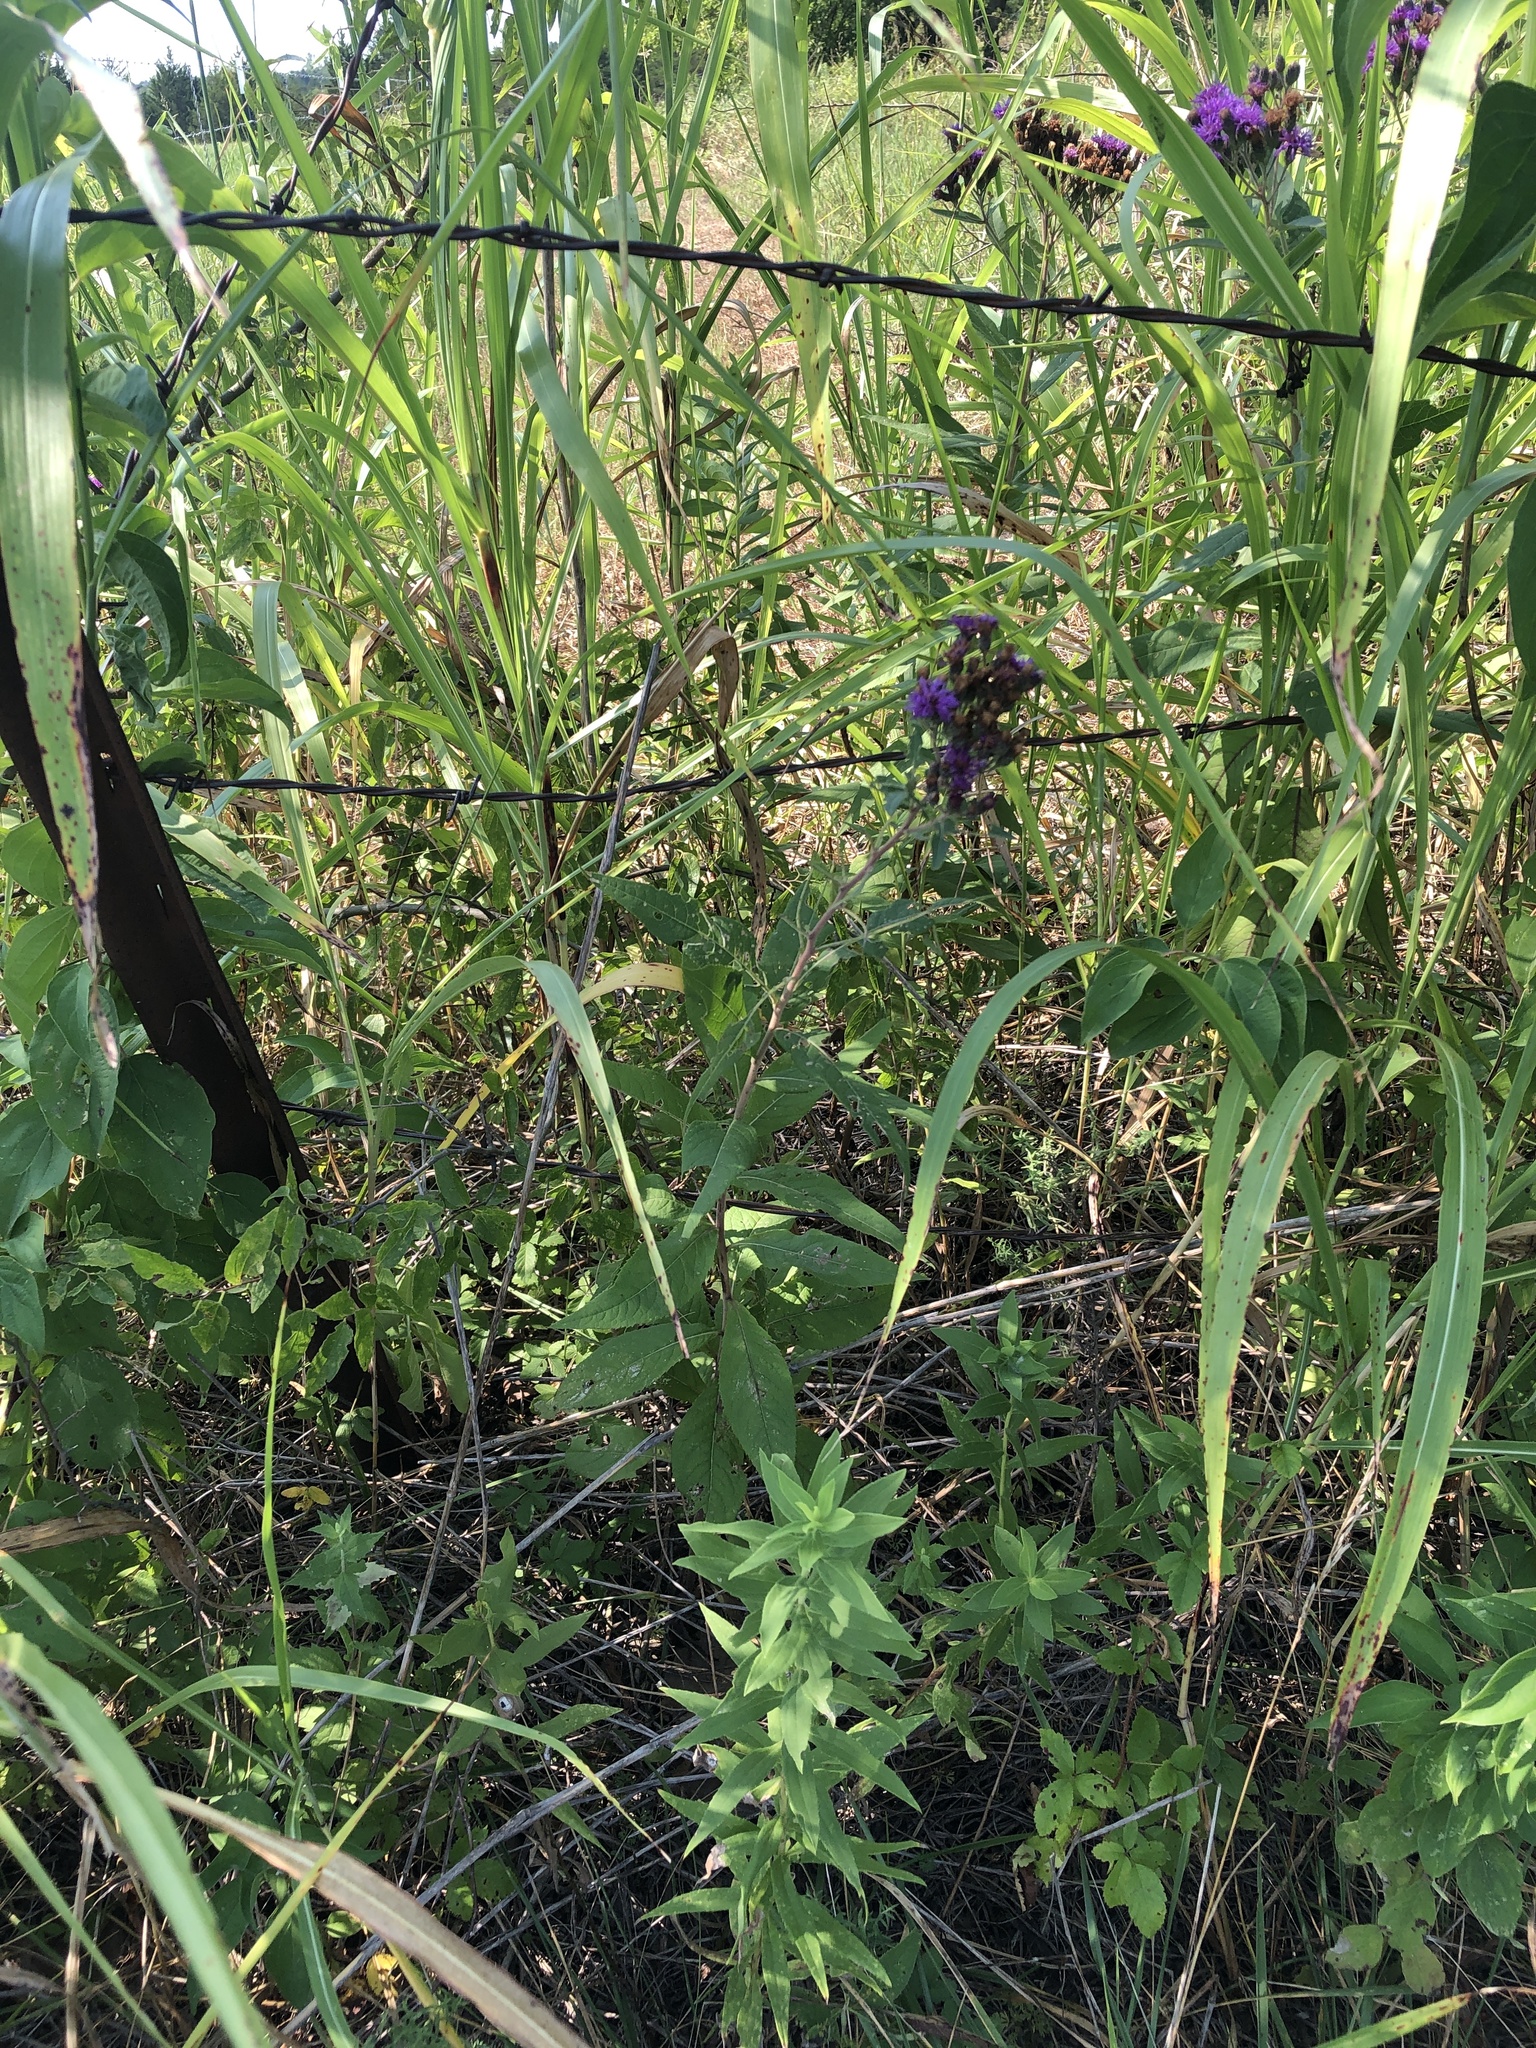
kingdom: Plantae
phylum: Tracheophyta
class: Magnoliopsida
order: Asterales
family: Asteraceae
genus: Vernonia
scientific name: Vernonia baldwinii
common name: Western ironweed
